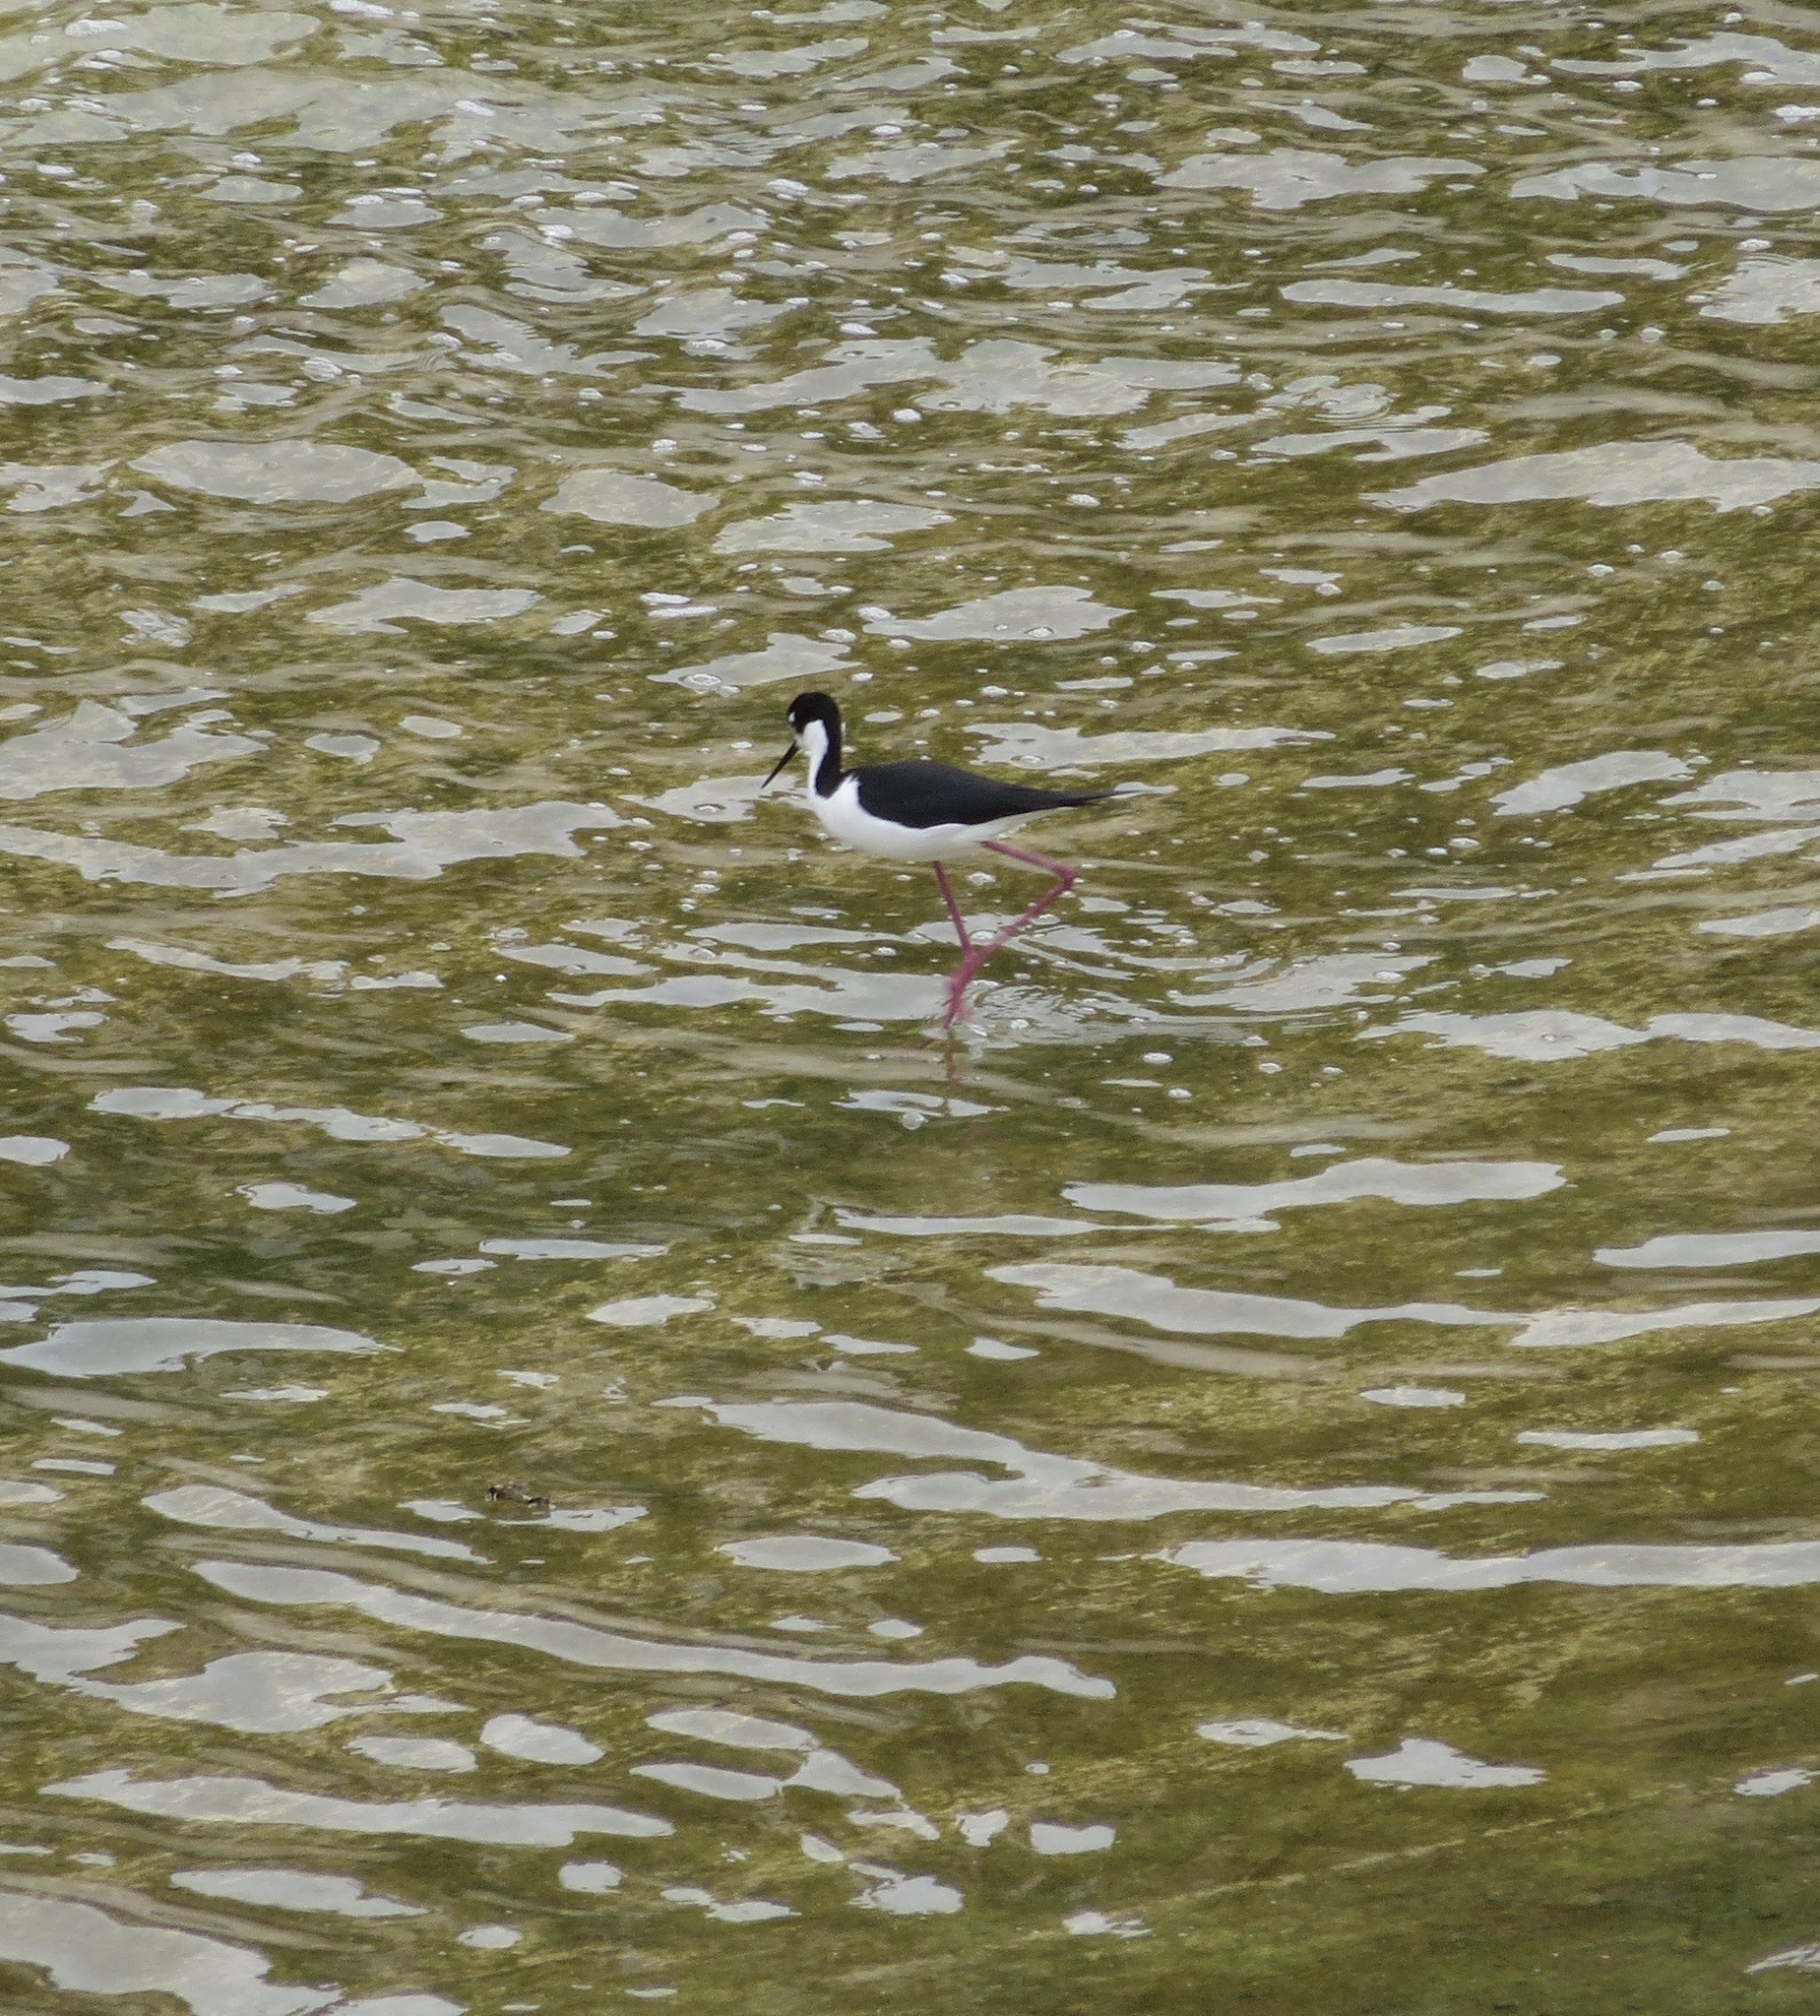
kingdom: Animalia
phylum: Chordata
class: Aves
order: Charadriiformes
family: Recurvirostridae
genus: Himantopus
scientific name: Himantopus mexicanus
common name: Black-necked stilt
